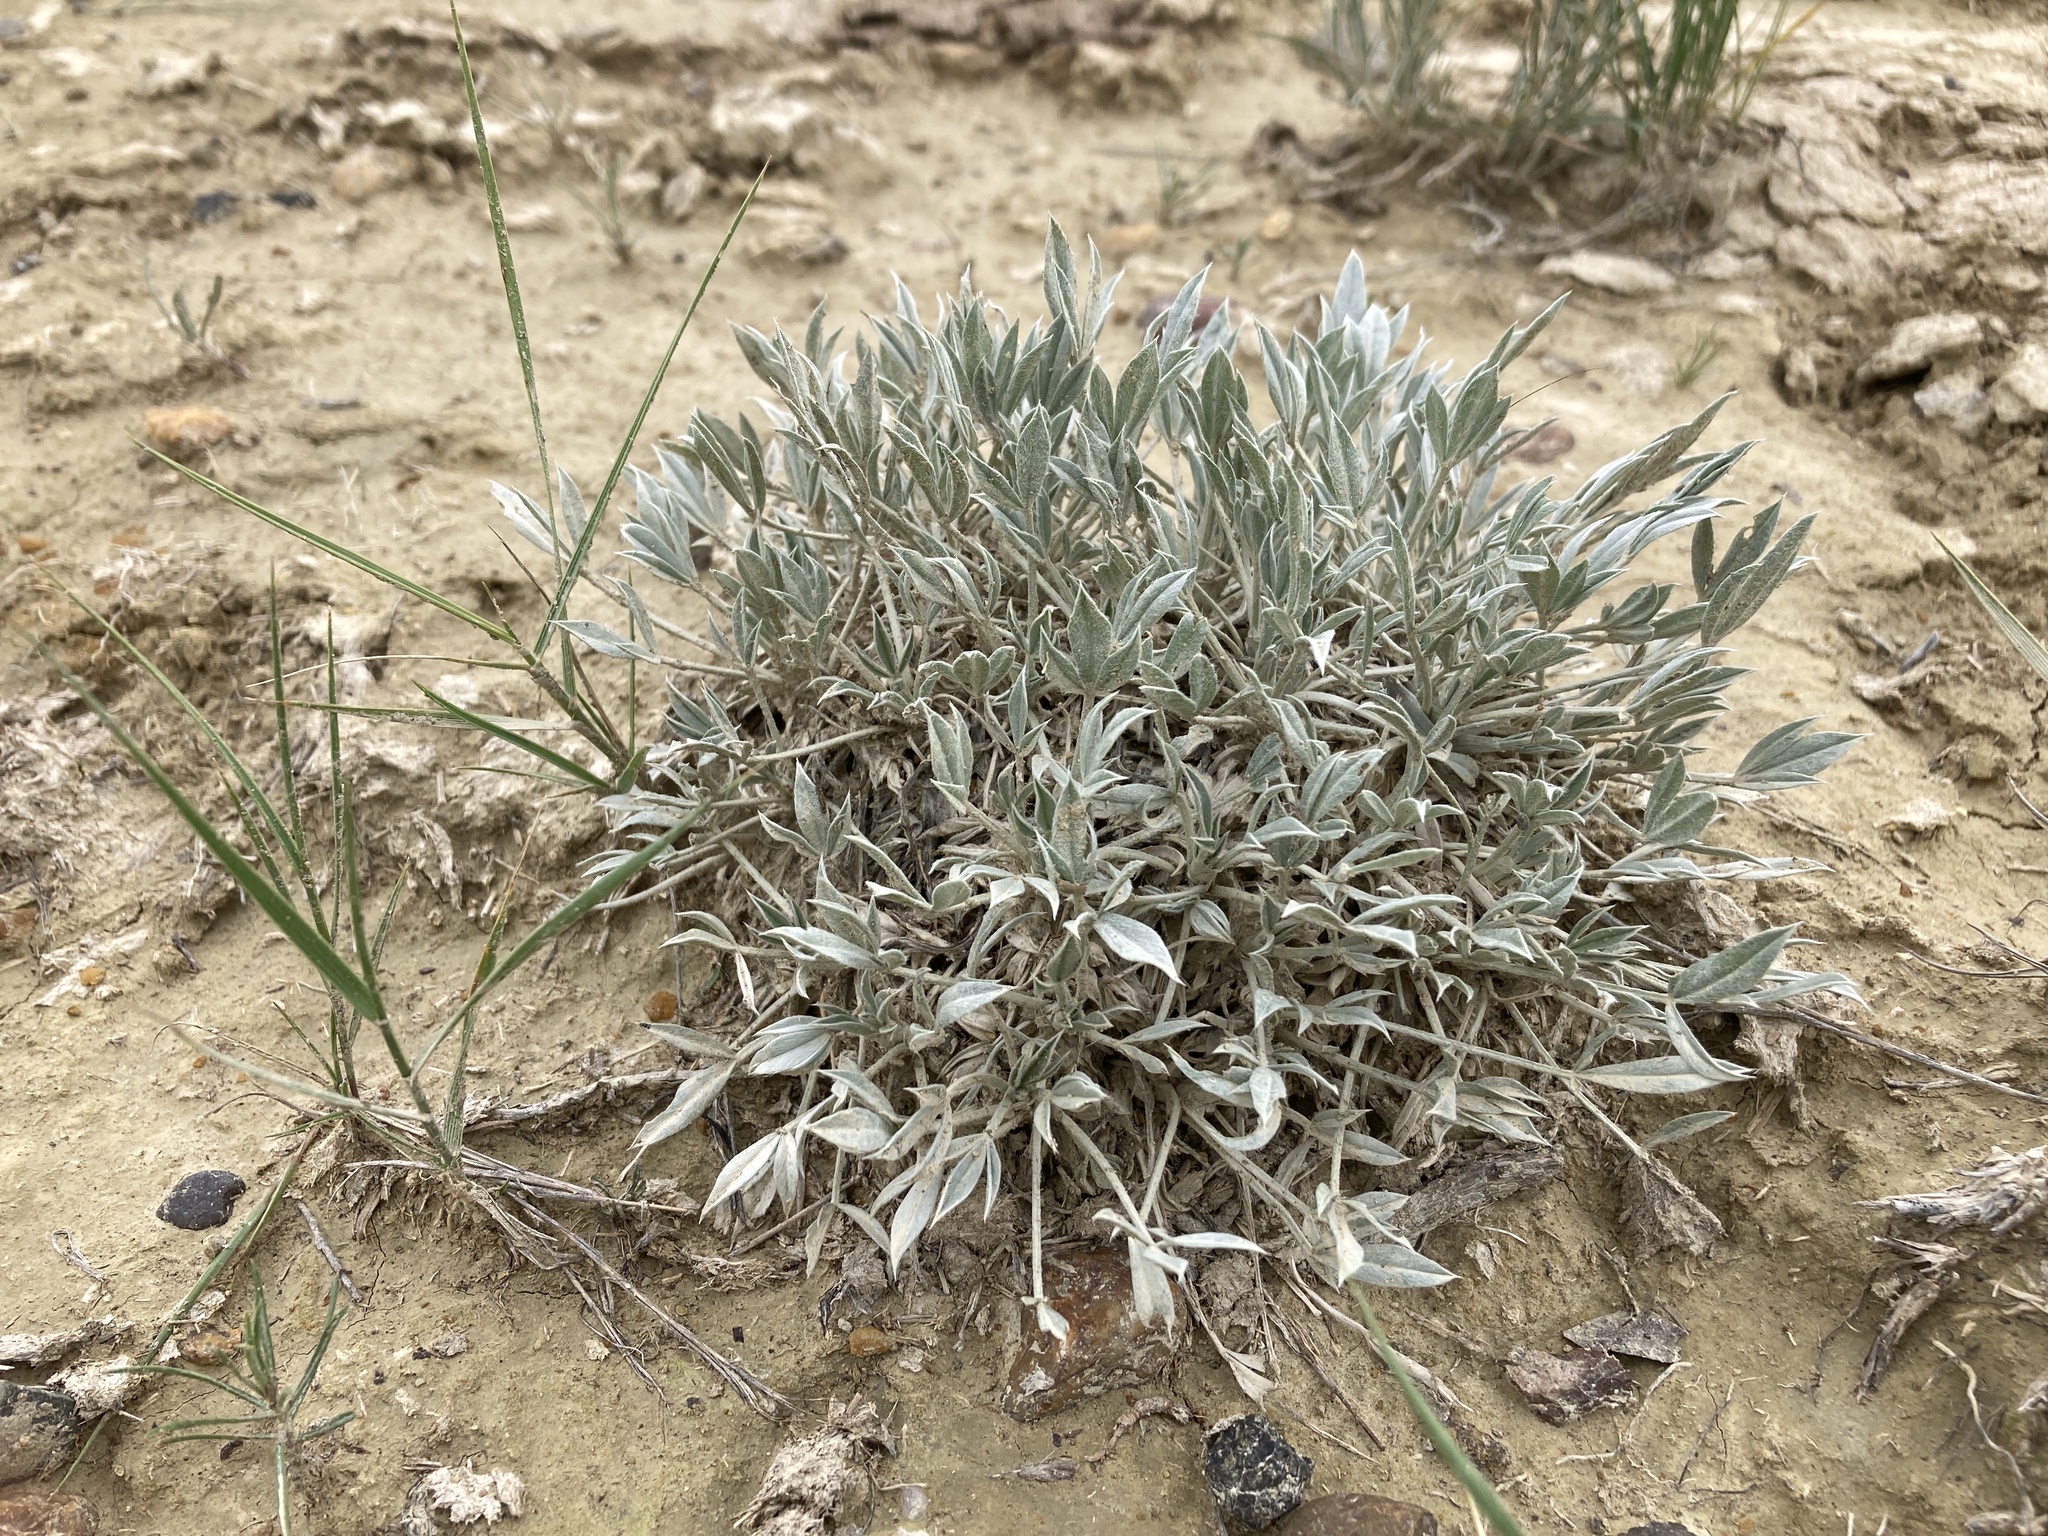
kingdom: Plantae
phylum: Tracheophyta
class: Magnoliopsida
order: Fabales
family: Fabaceae
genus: Astragalus
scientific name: Astragalus gilviflorus
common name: Cushion milk-vetch
